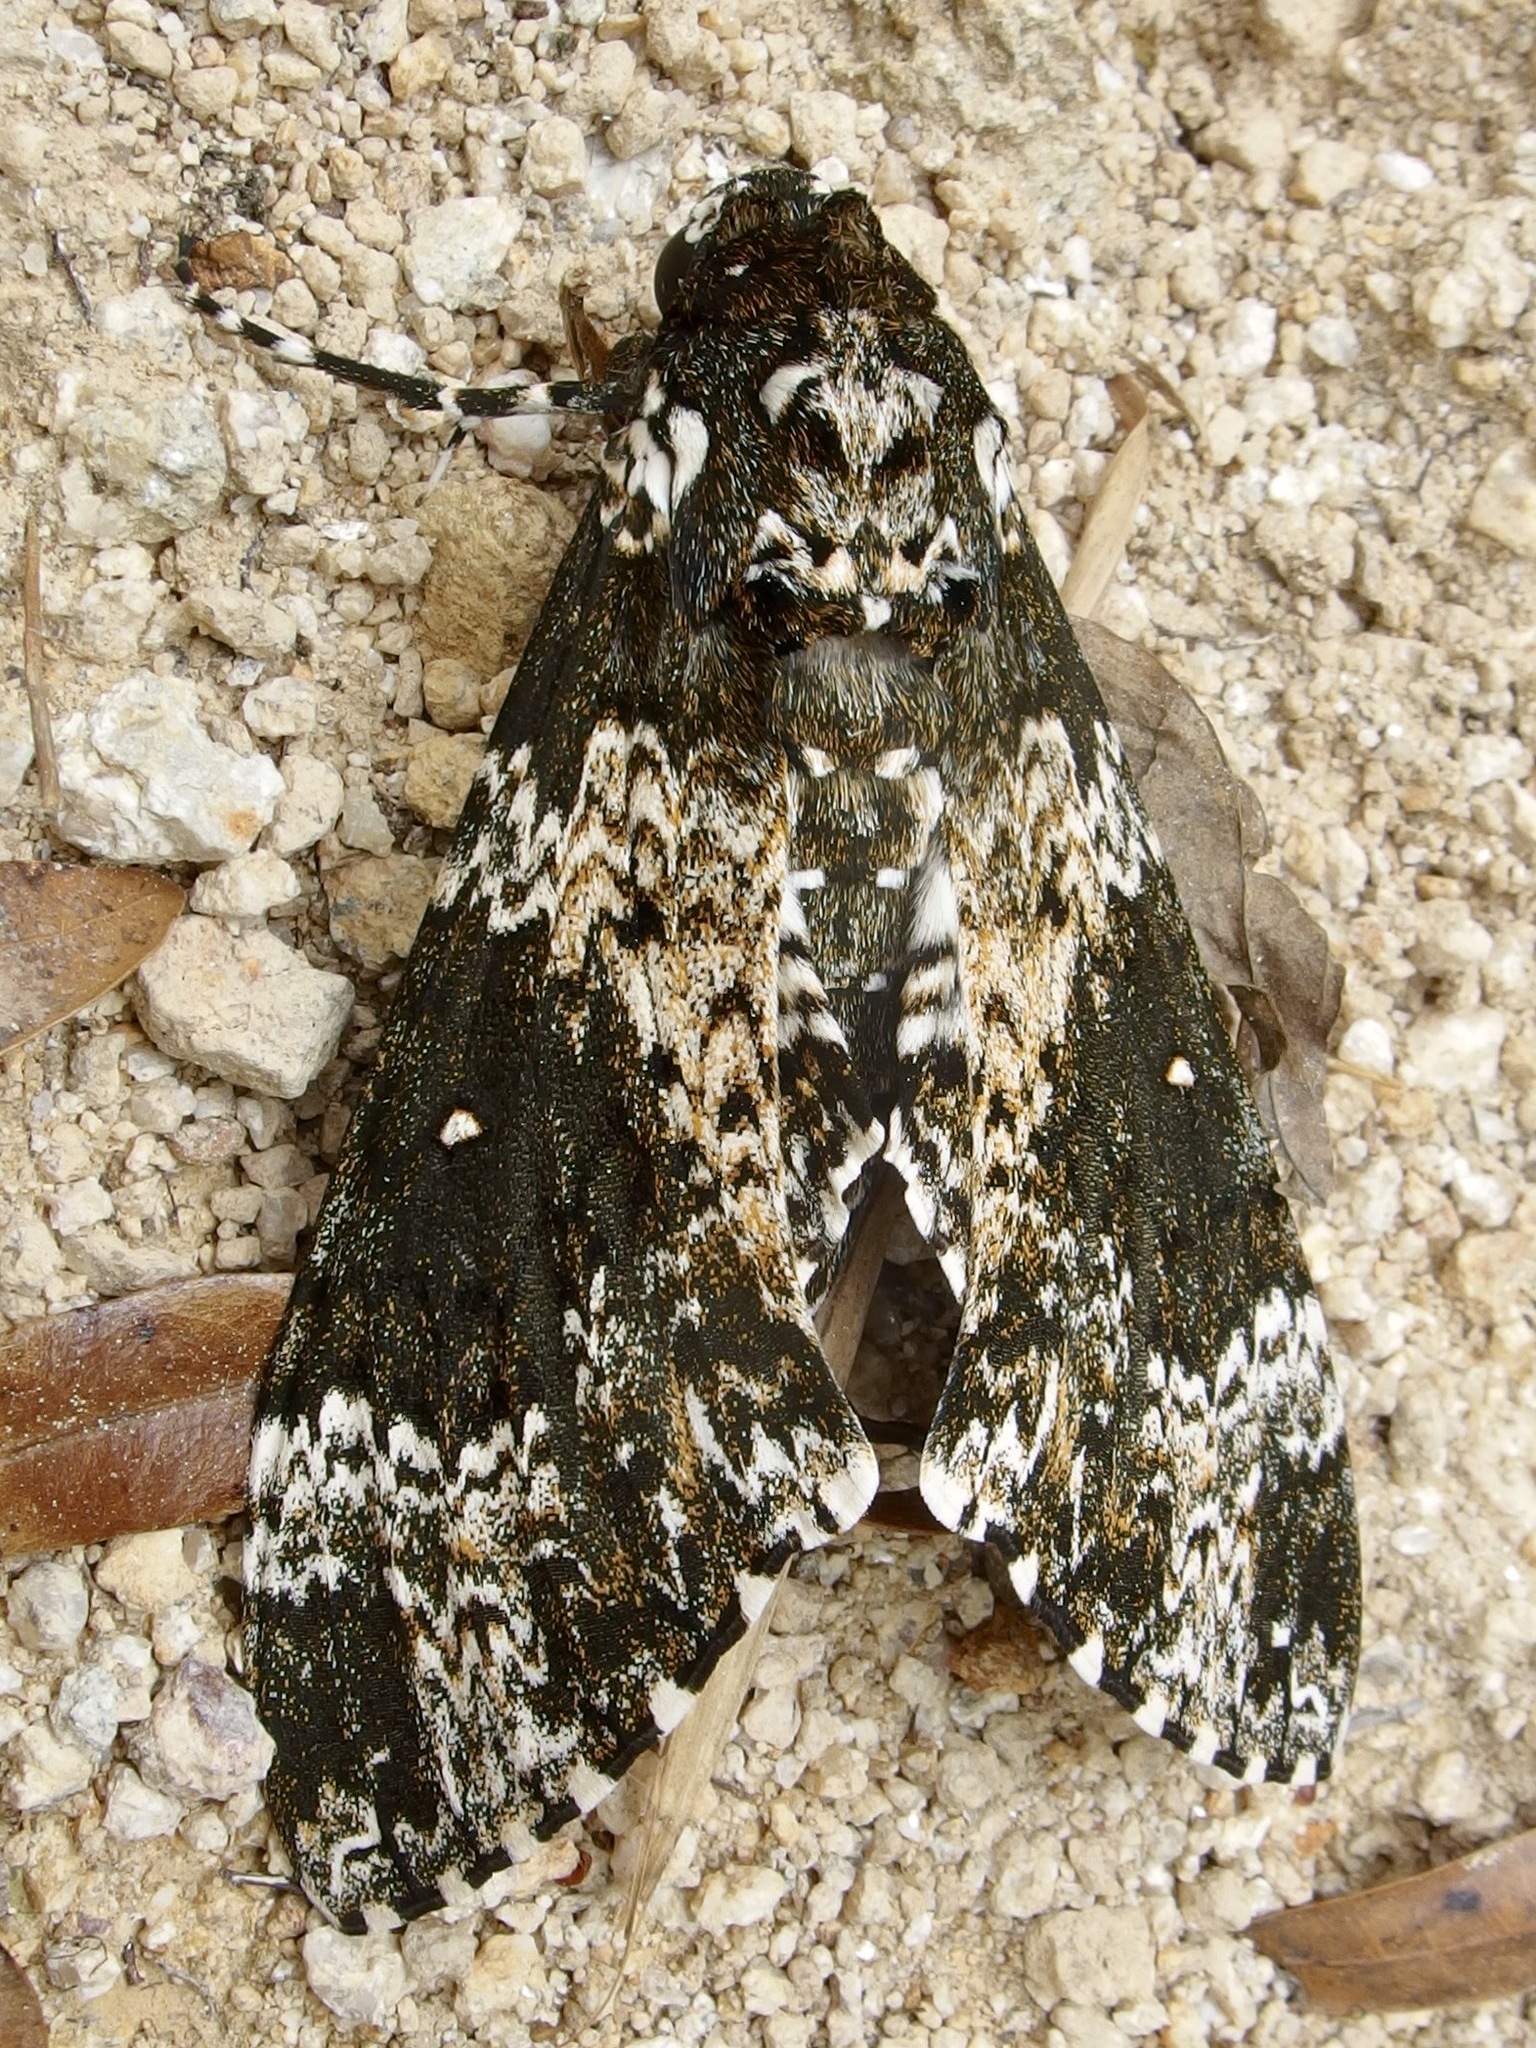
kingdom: Animalia
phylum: Arthropoda
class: Insecta
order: Lepidoptera
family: Sphingidae
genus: Manduca
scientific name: Manduca rustica
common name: Rustic sphinx
